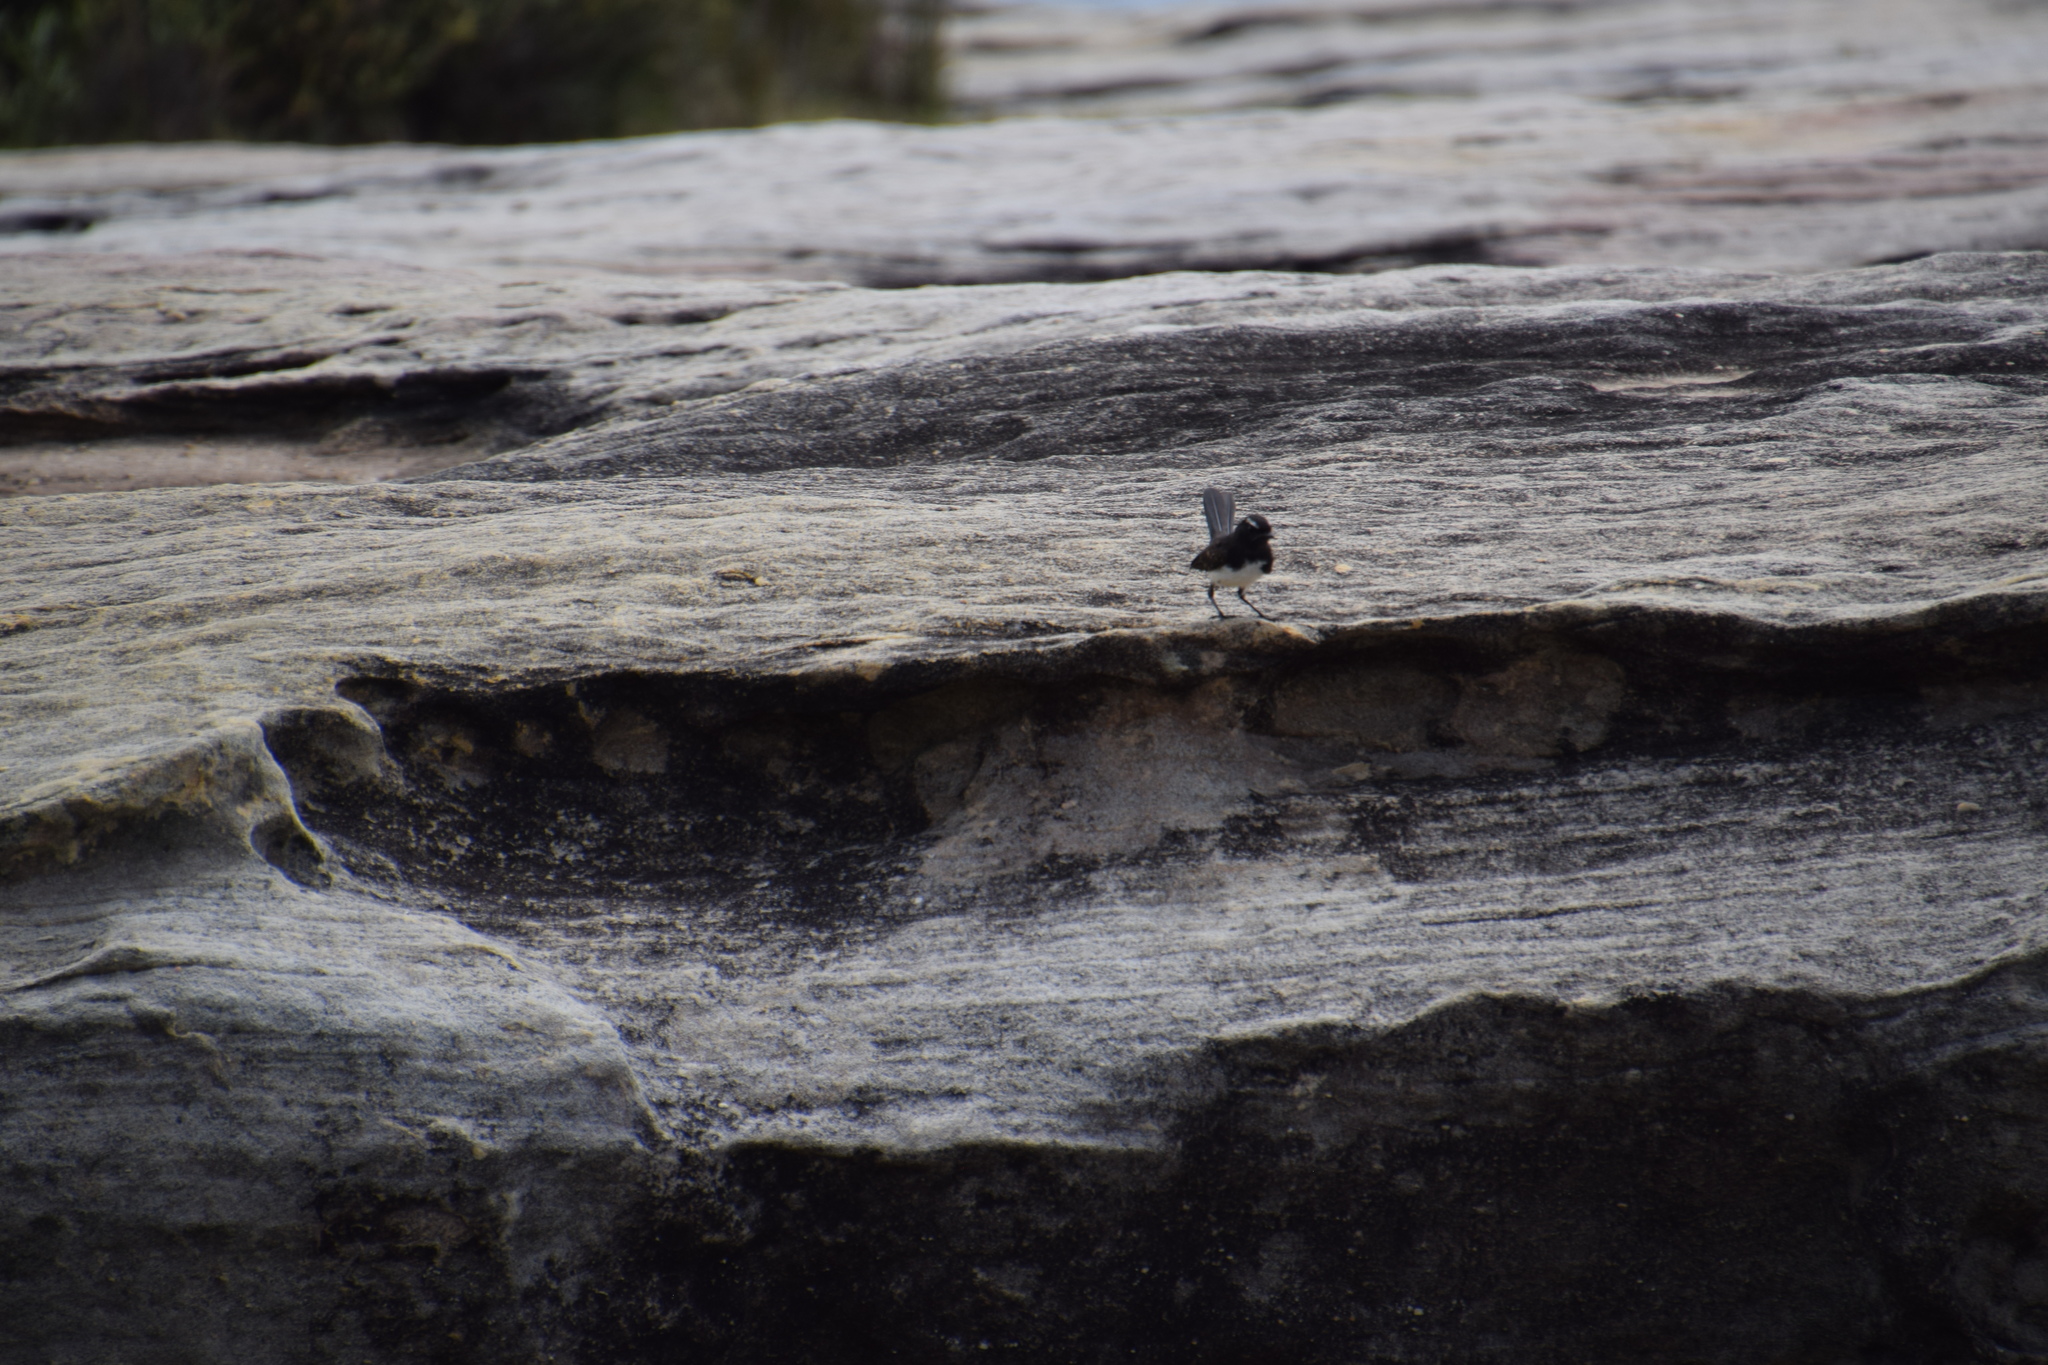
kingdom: Animalia
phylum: Chordata
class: Aves
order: Passeriformes
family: Rhipiduridae
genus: Rhipidura
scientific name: Rhipidura leucophrys
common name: Willie wagtail
